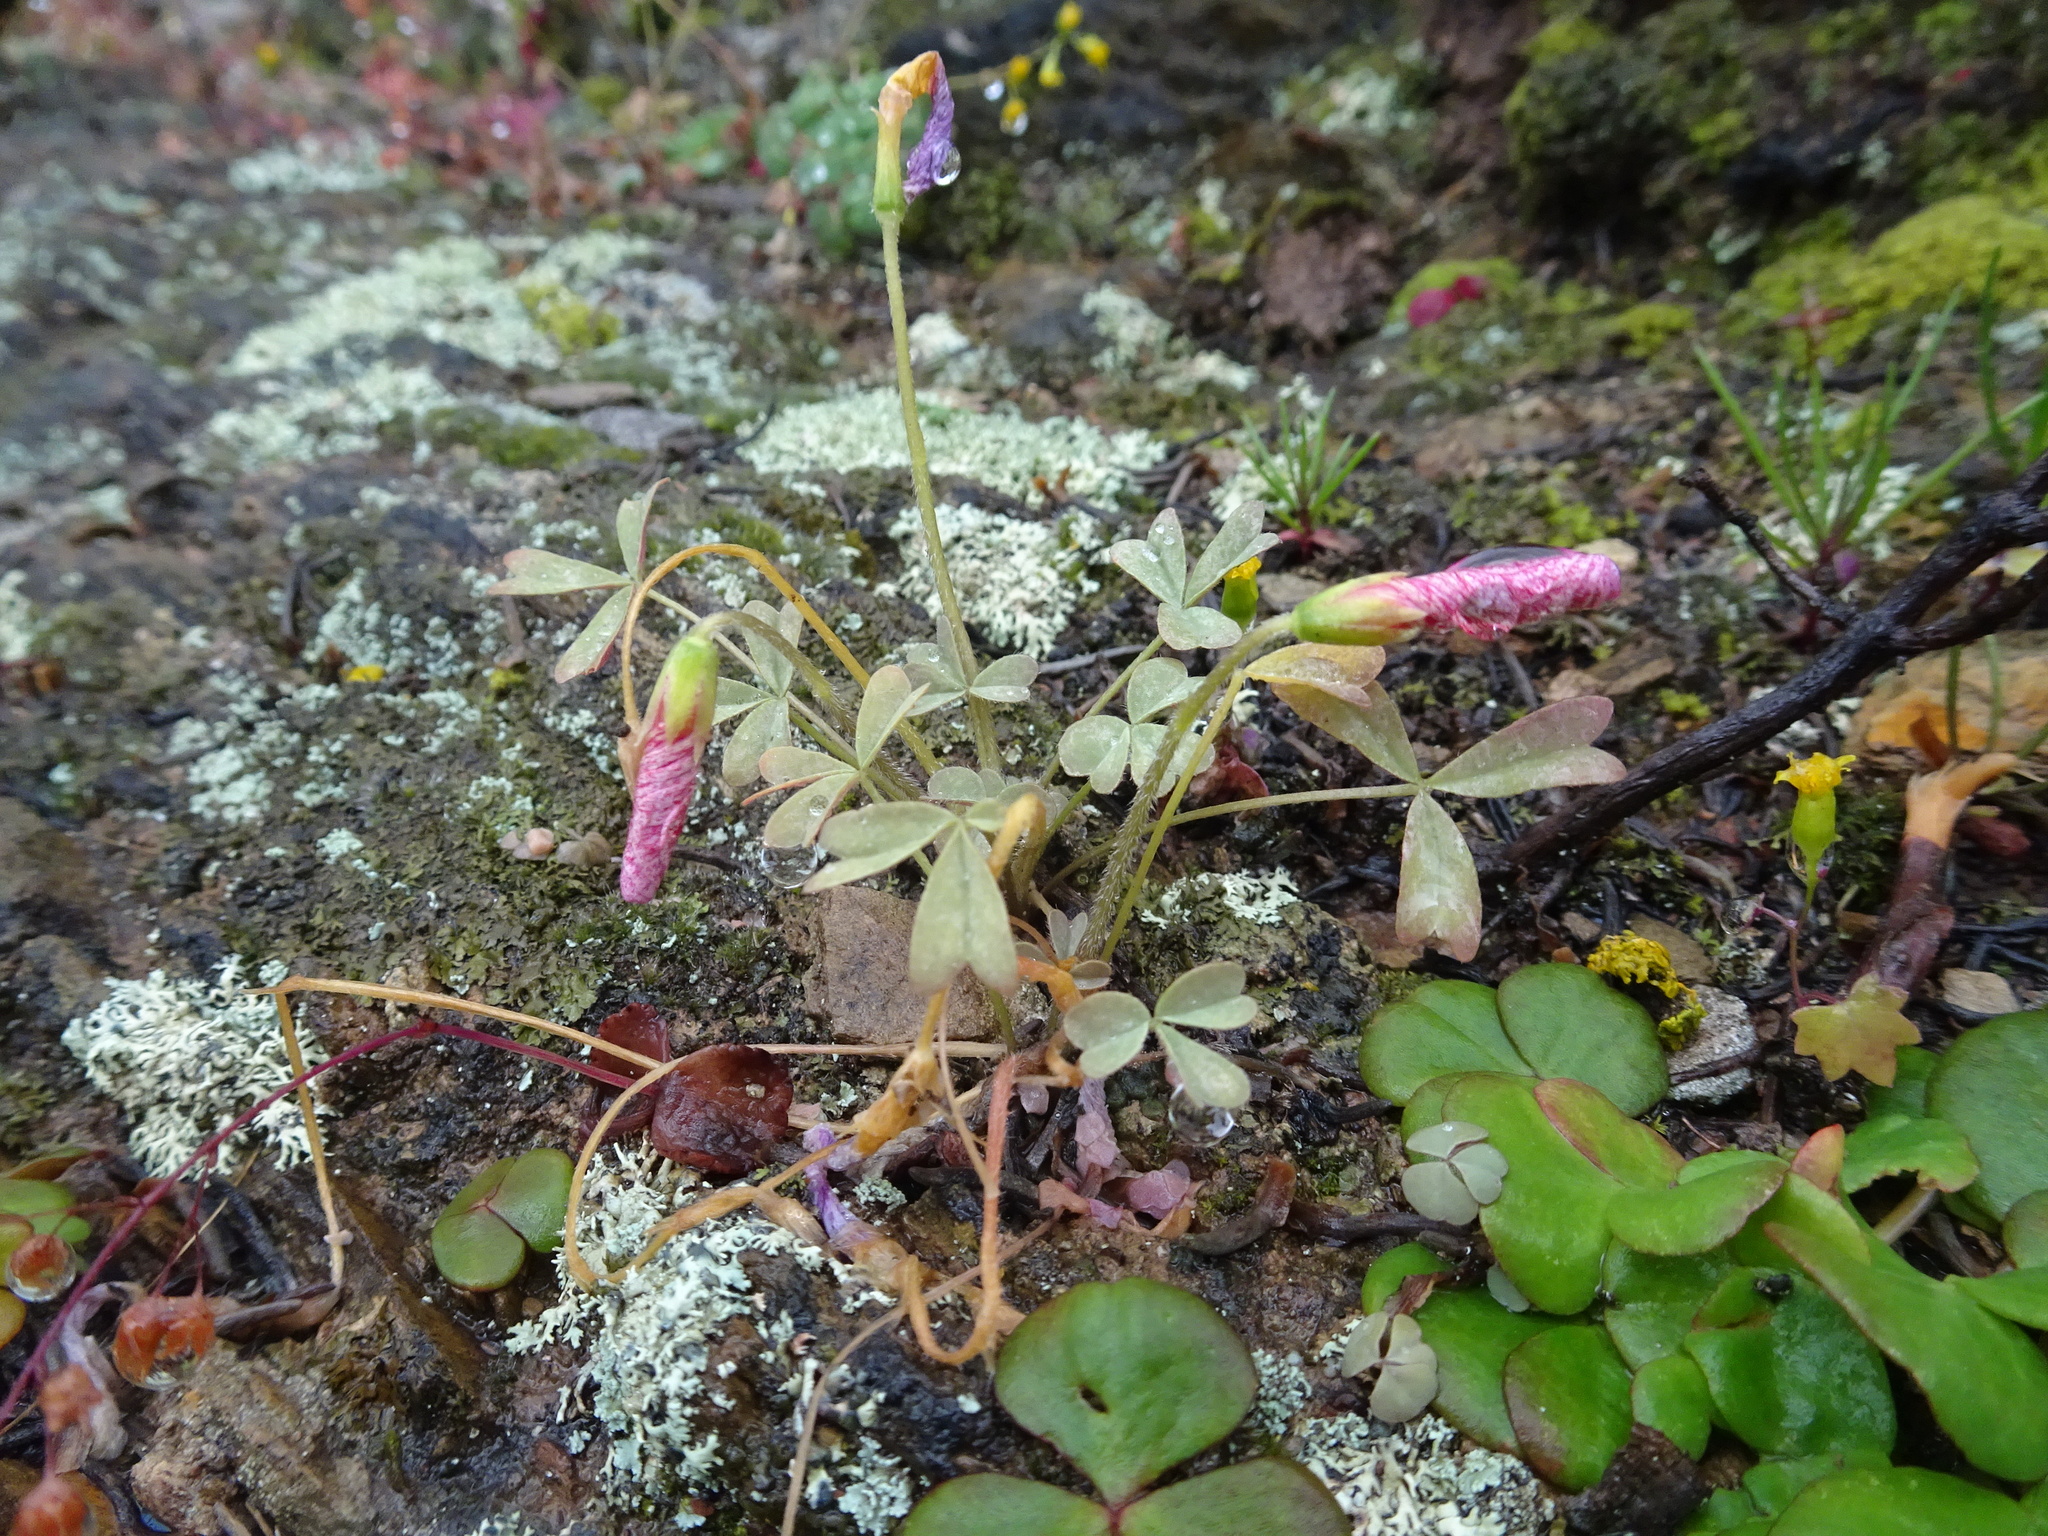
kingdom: Plantae
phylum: Tracheophyta
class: Magnoliopsida
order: Oxalidales
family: Oxalidaceae
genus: Oxalis
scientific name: Oxalis obtusa
